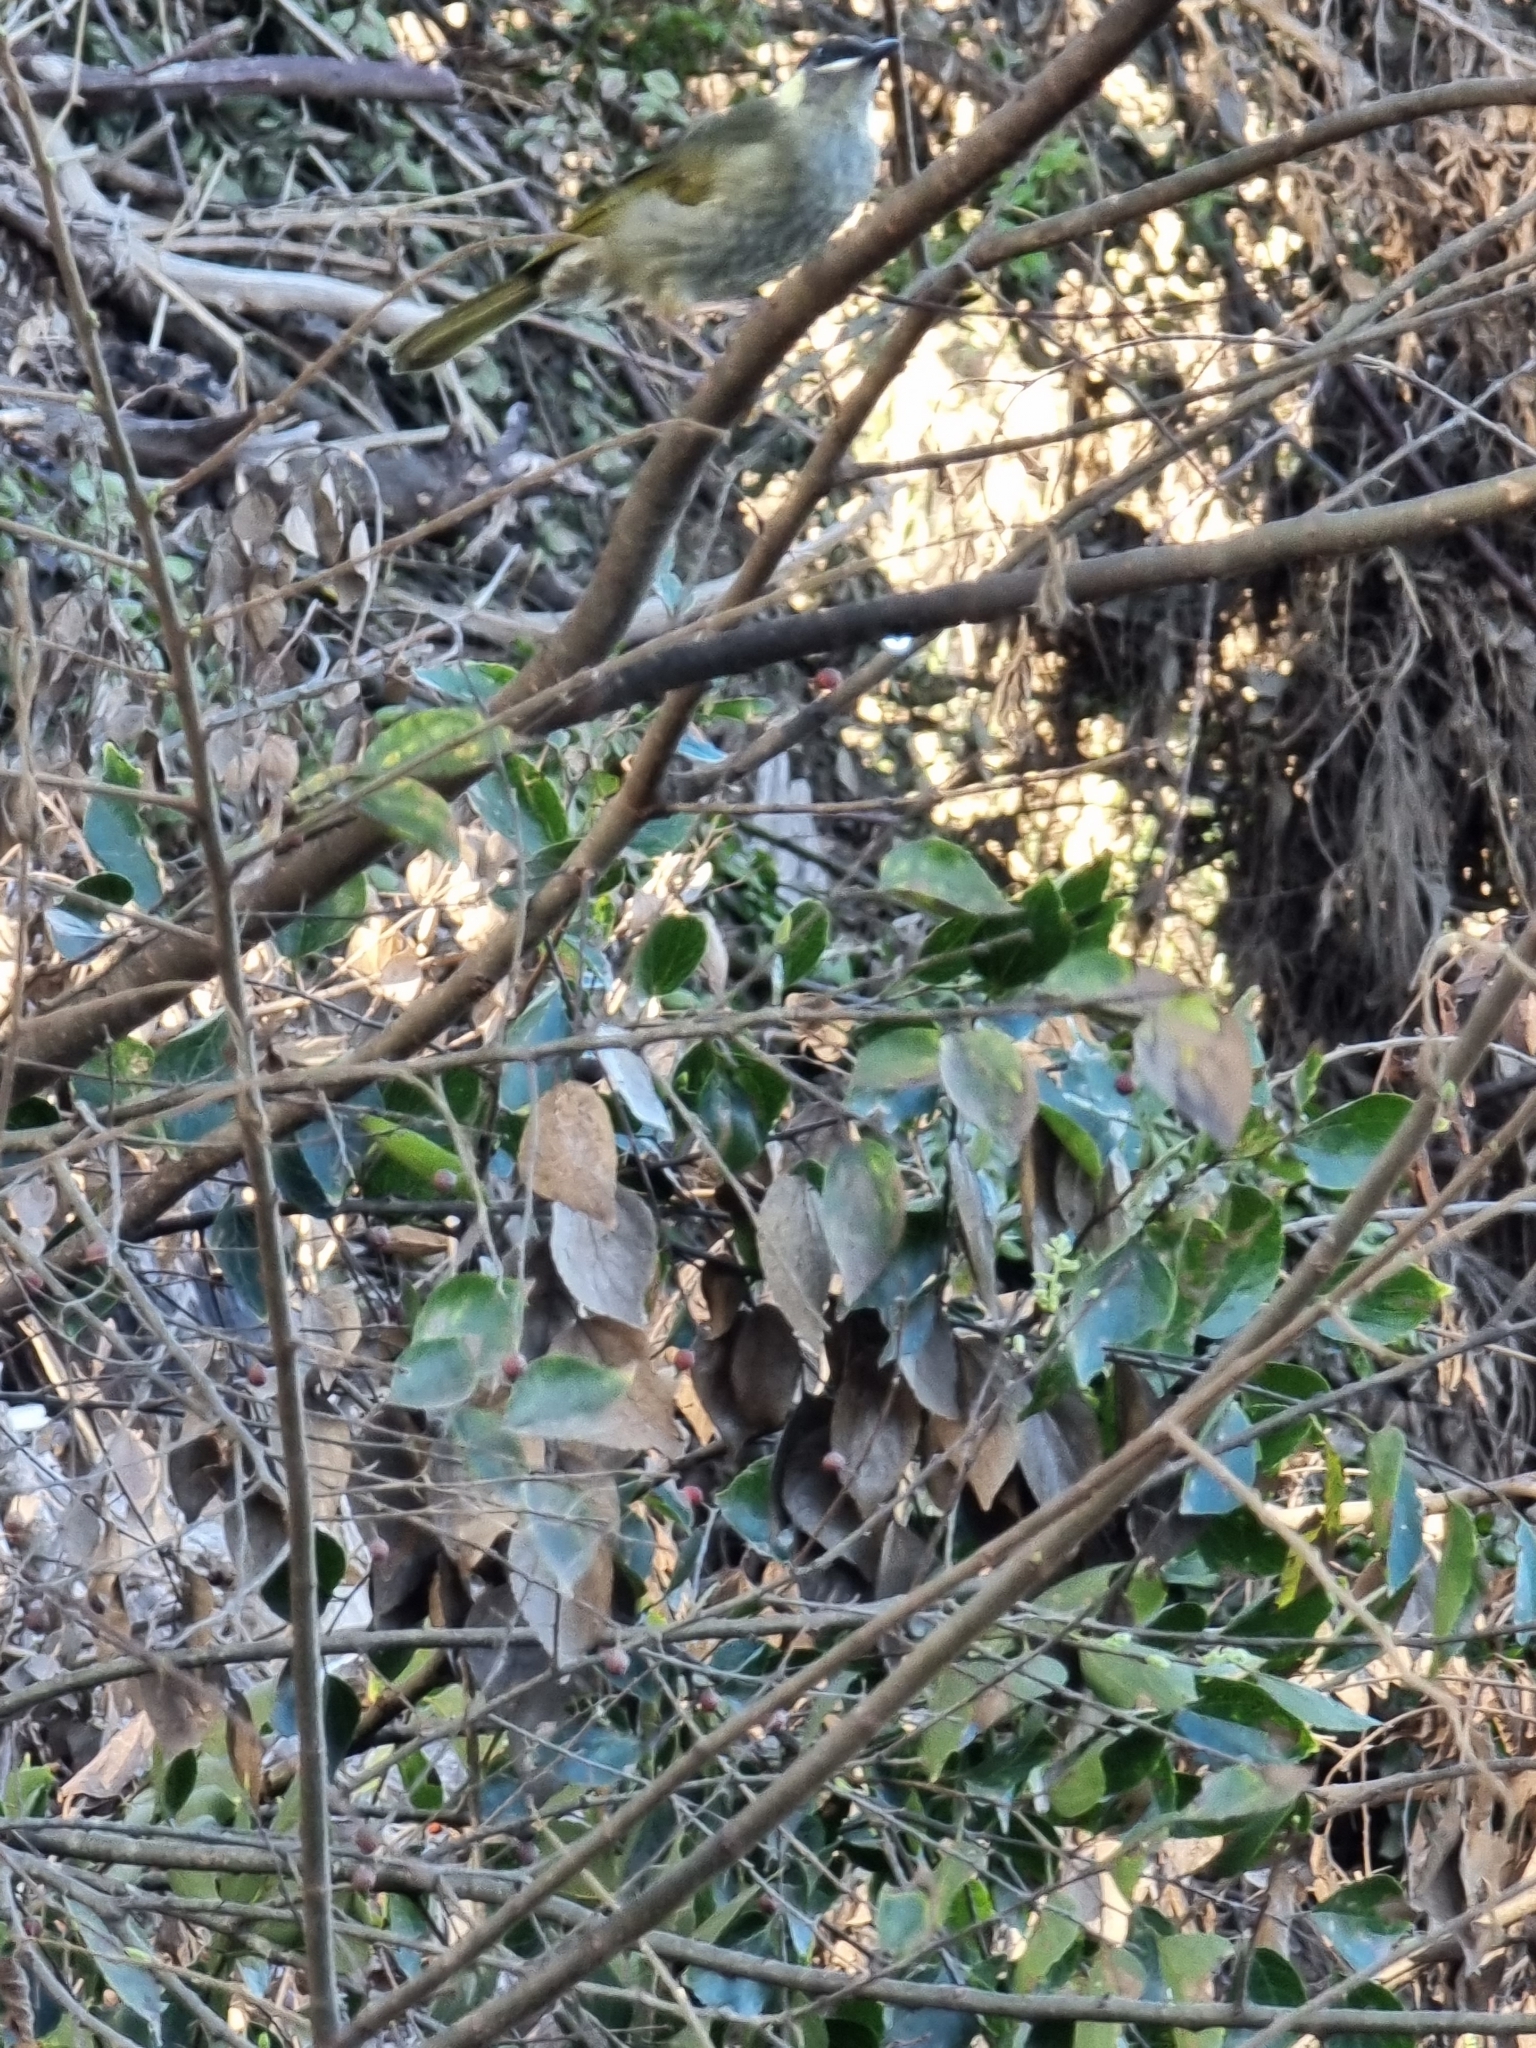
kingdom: Animalia
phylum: Chordata
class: Aves
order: Passeriformes
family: Meliphagidae
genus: Meliphaga
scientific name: Meliphaga lewinii
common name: Lewin's honeyeater
